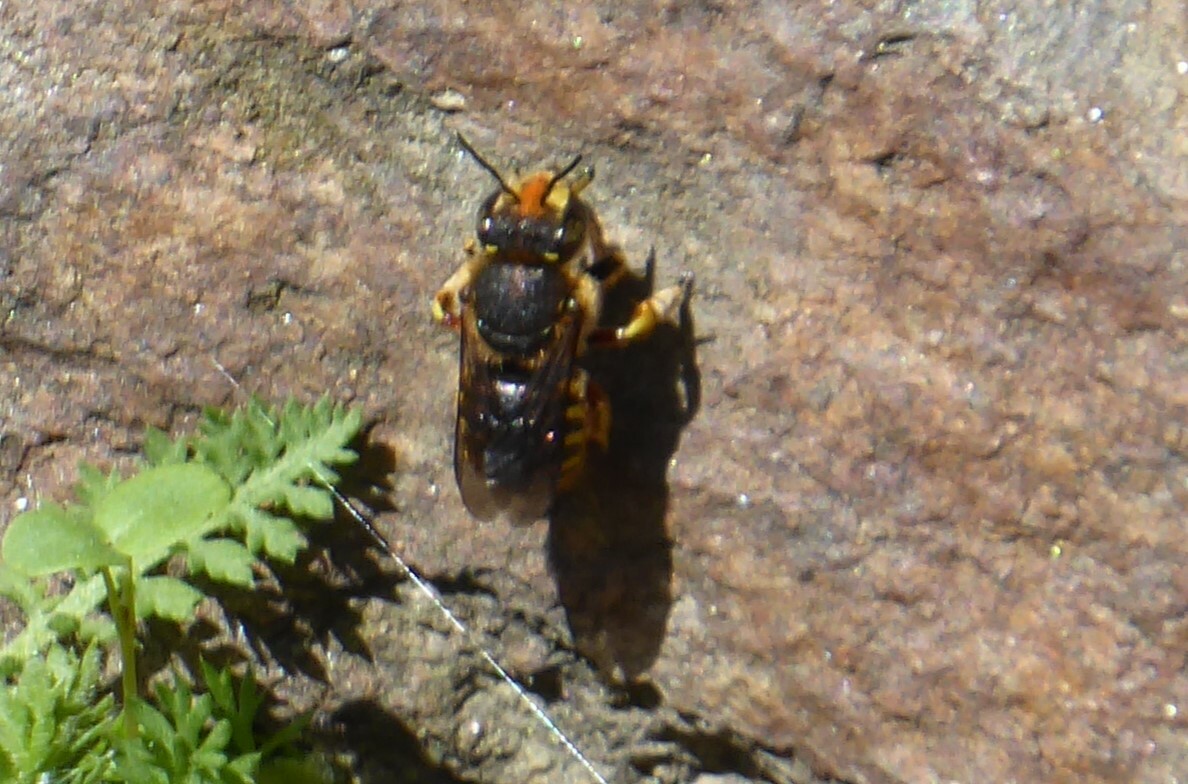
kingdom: Animalia
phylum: Arthropoda
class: Insecta
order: Hymenoptera
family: Megachilidae
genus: Anthidium
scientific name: Anthidium manicatum
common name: Wool carder bee
